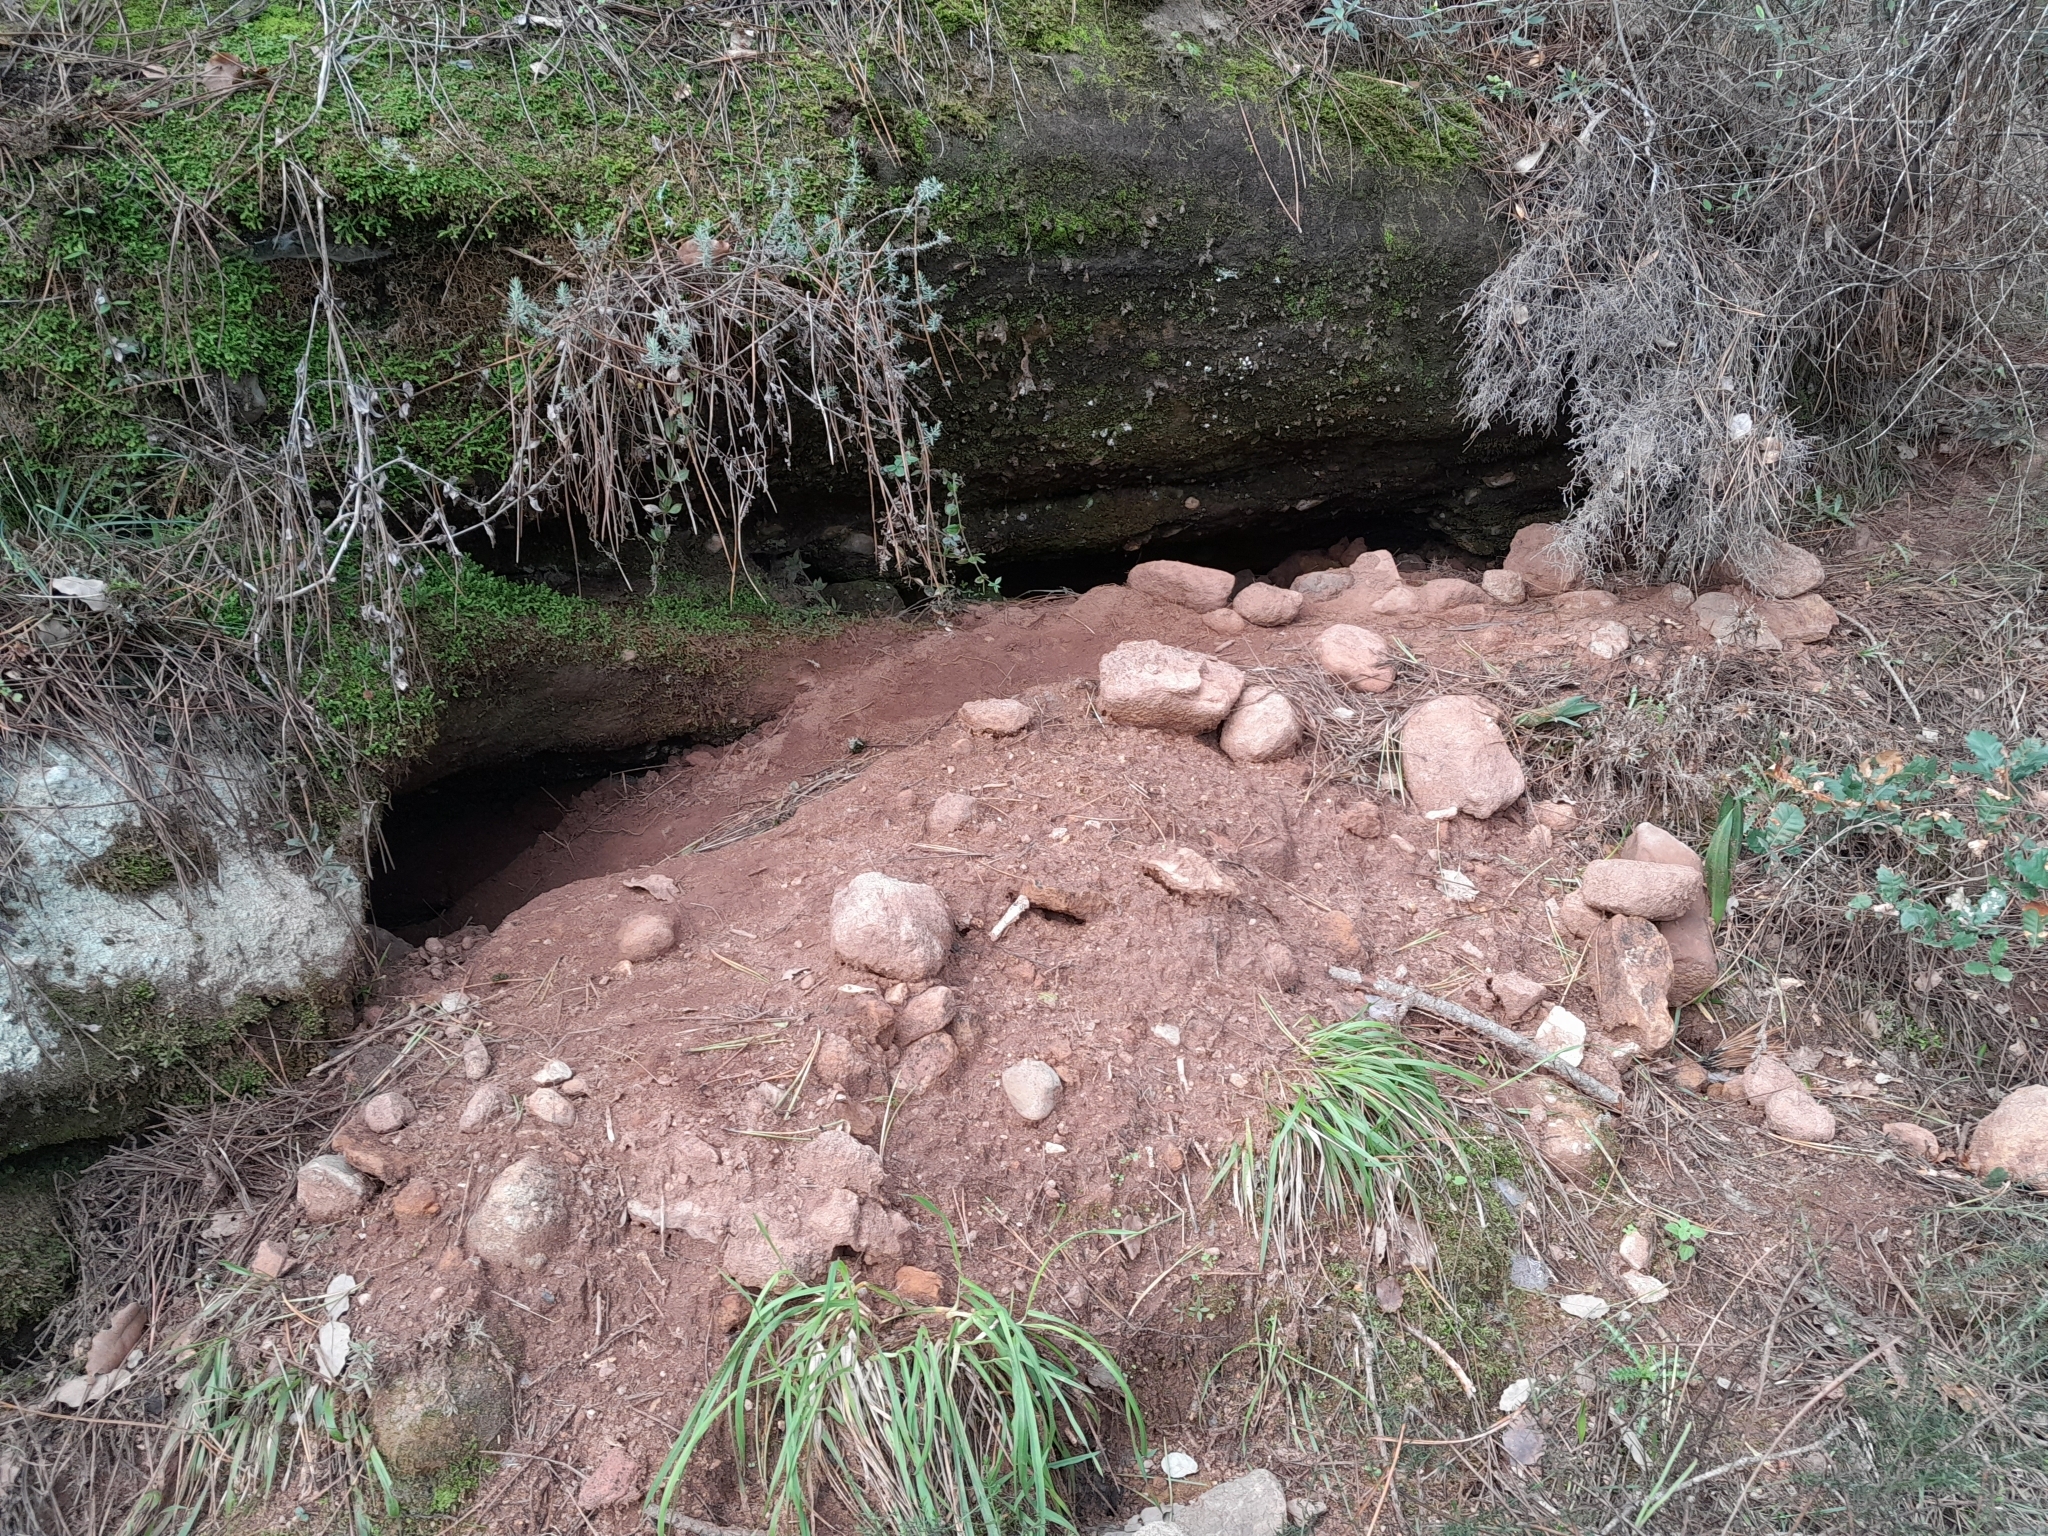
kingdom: Animalia
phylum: Chordata
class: Mammalia
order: Carnivora
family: Mustelidae
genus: Meles
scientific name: Meles meles
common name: Eurasian badger
